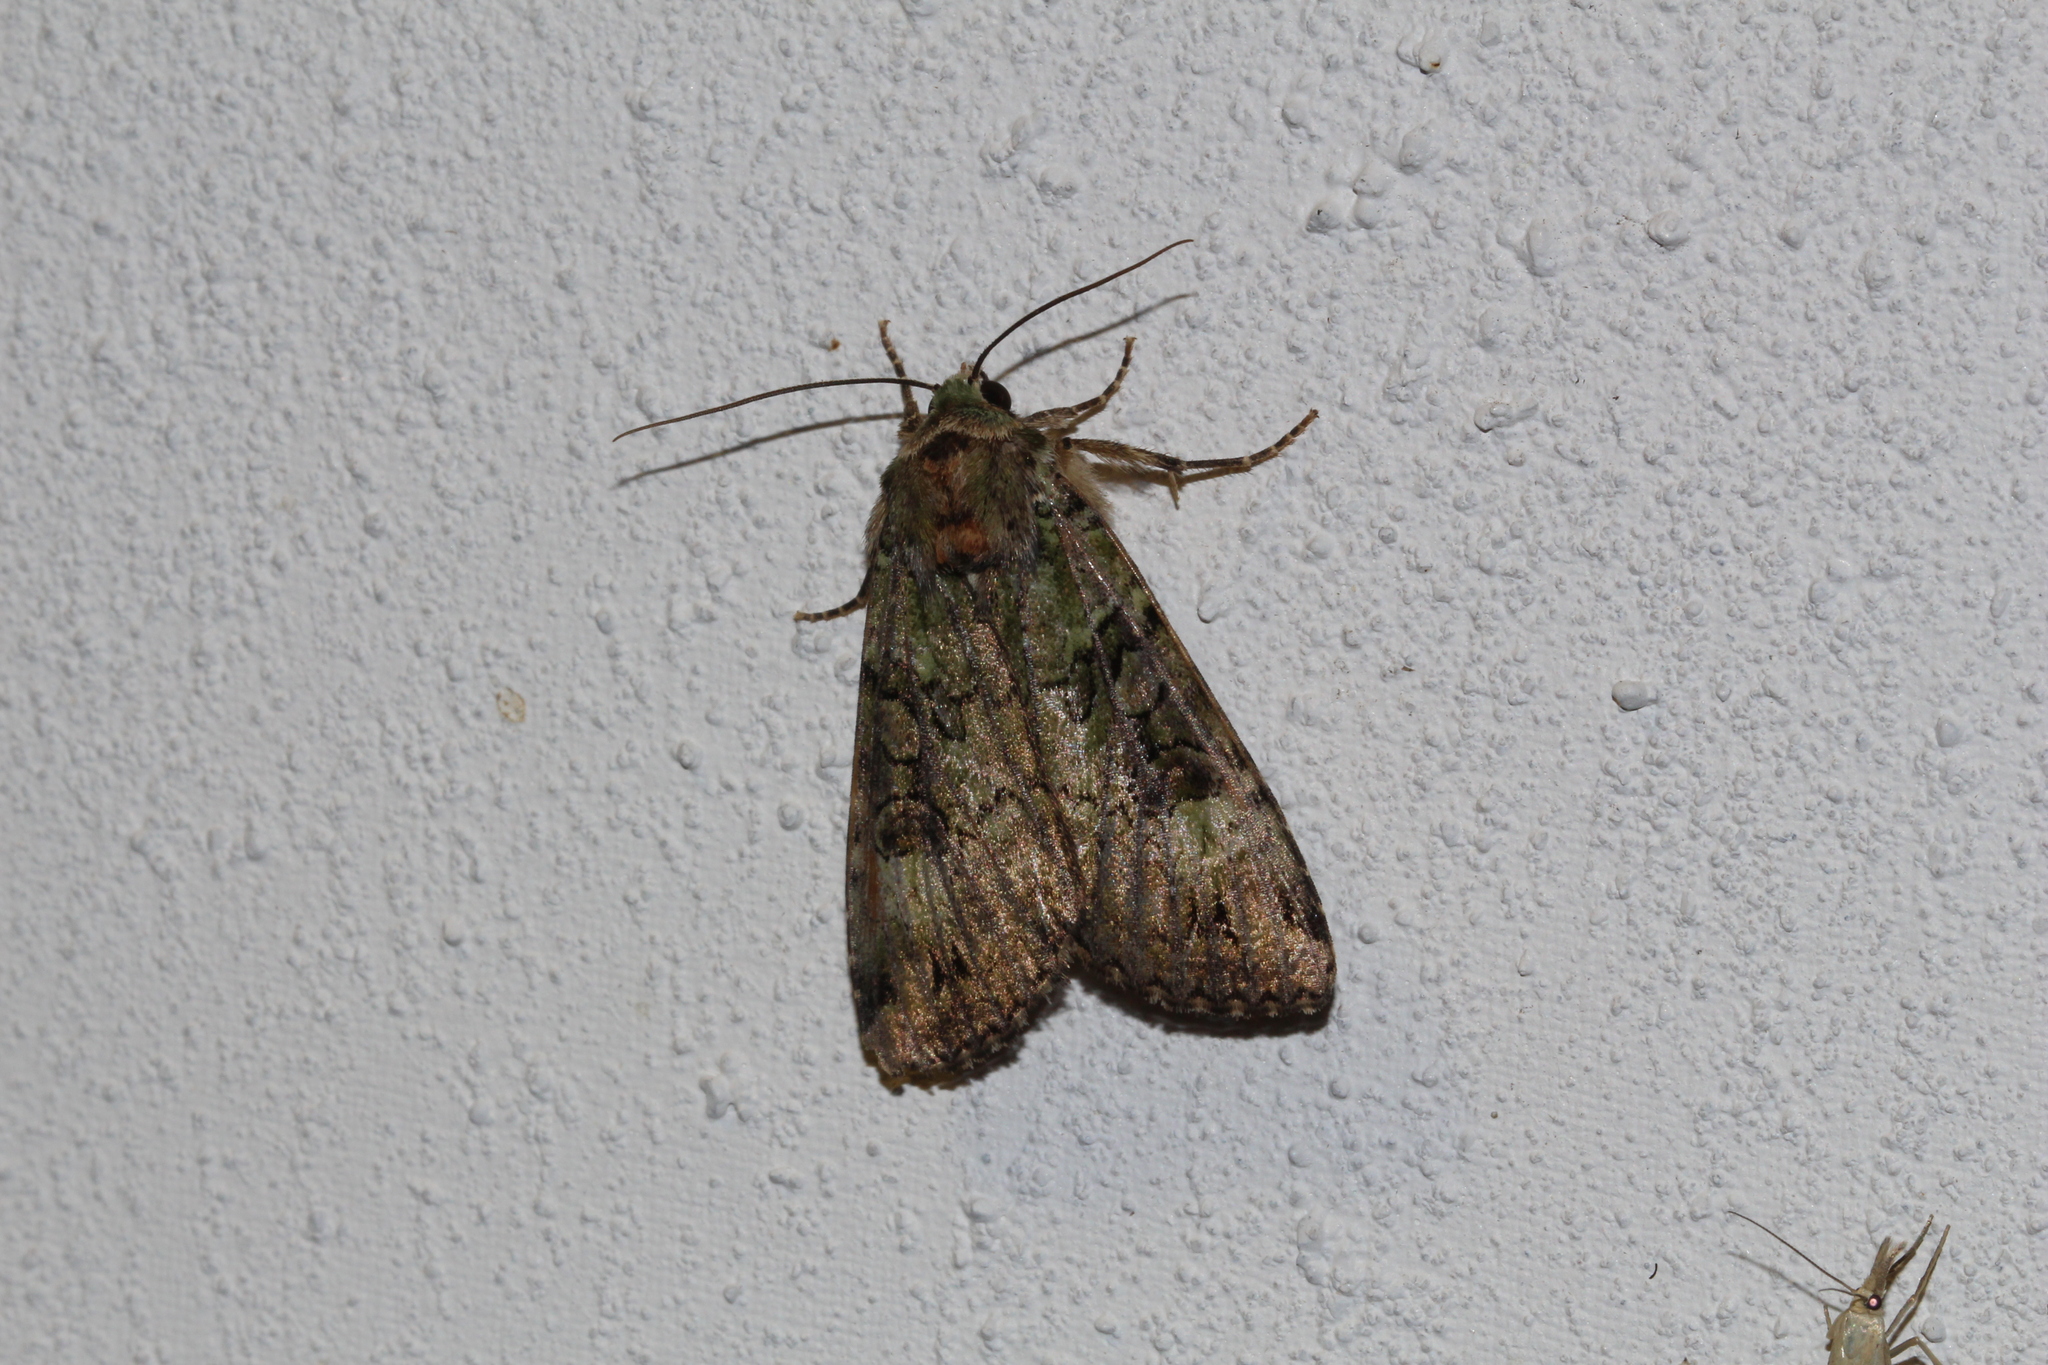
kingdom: Animalia
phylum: Arthropoda
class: Insecta
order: Lepidoptera
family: Noctuidae
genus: Anaplectoides
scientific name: Anaplectoides prasina
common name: Green arches
